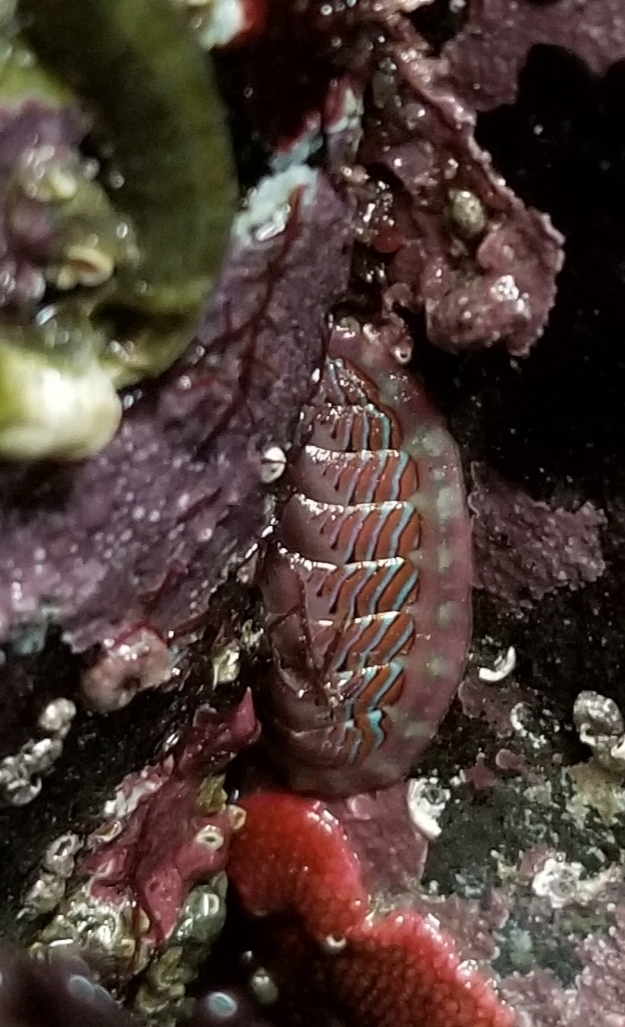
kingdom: Animalia
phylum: Mollusca
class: Polyplacophora
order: Chitonida
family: Tonicellidae
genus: Tonicella
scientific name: Tonicella lineata
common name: Lined chiton
